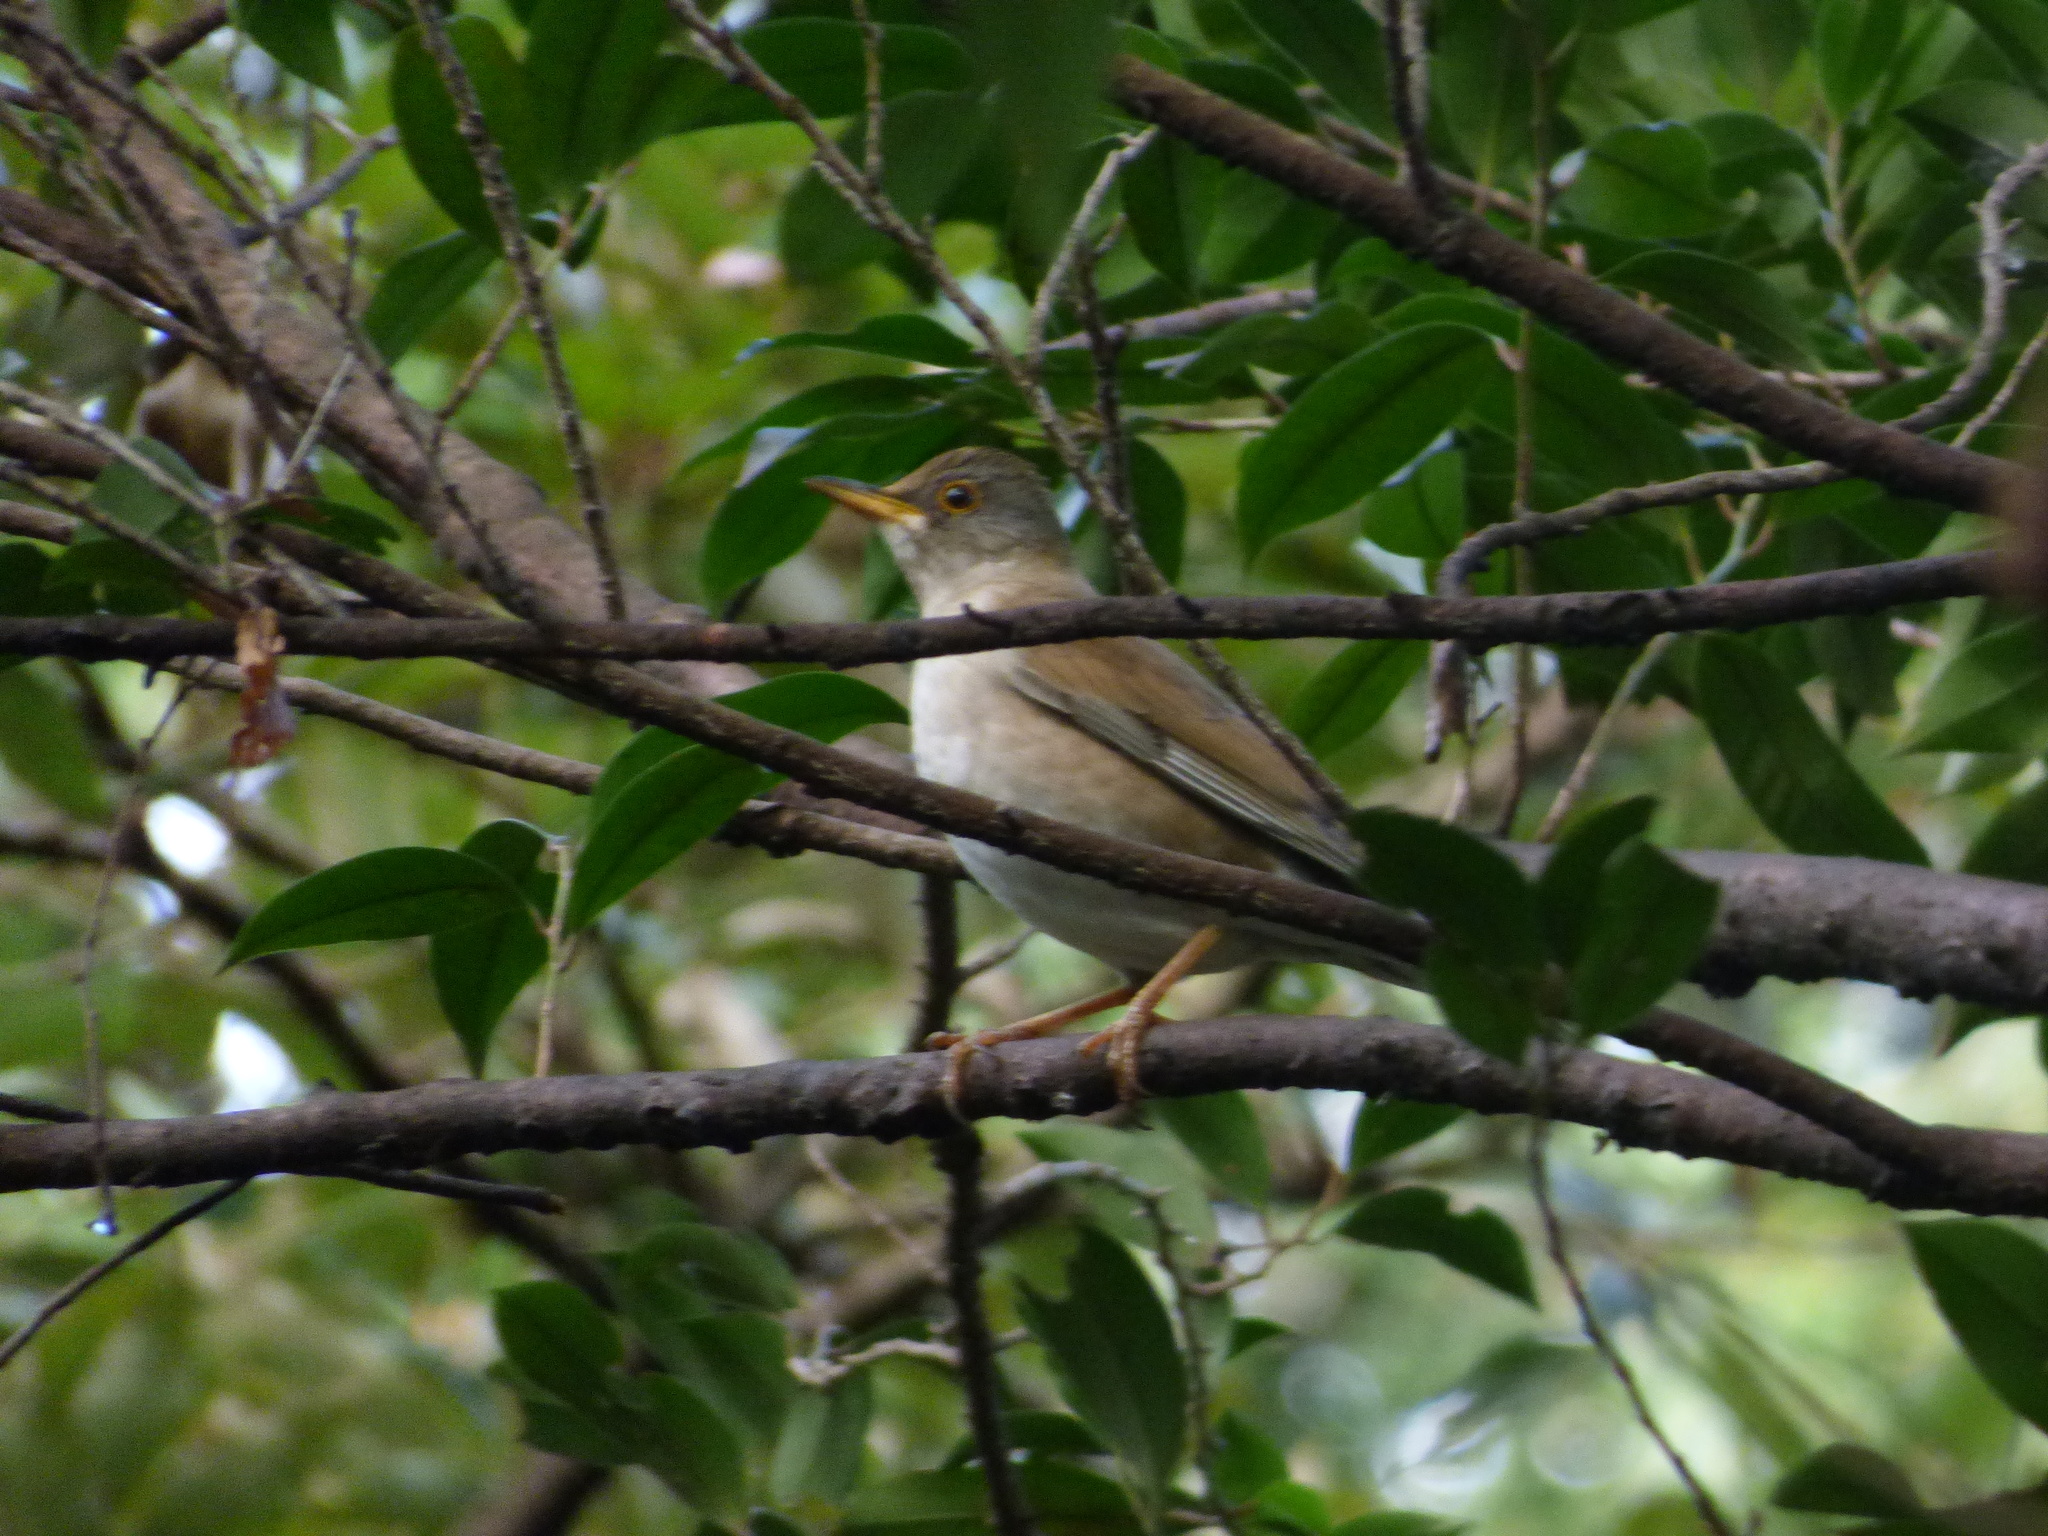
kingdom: Animalia
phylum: Chordata
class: Aves
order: Passeriformes
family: Turdidae
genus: Turdus
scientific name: Turdus pallidus
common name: Pale thrush
